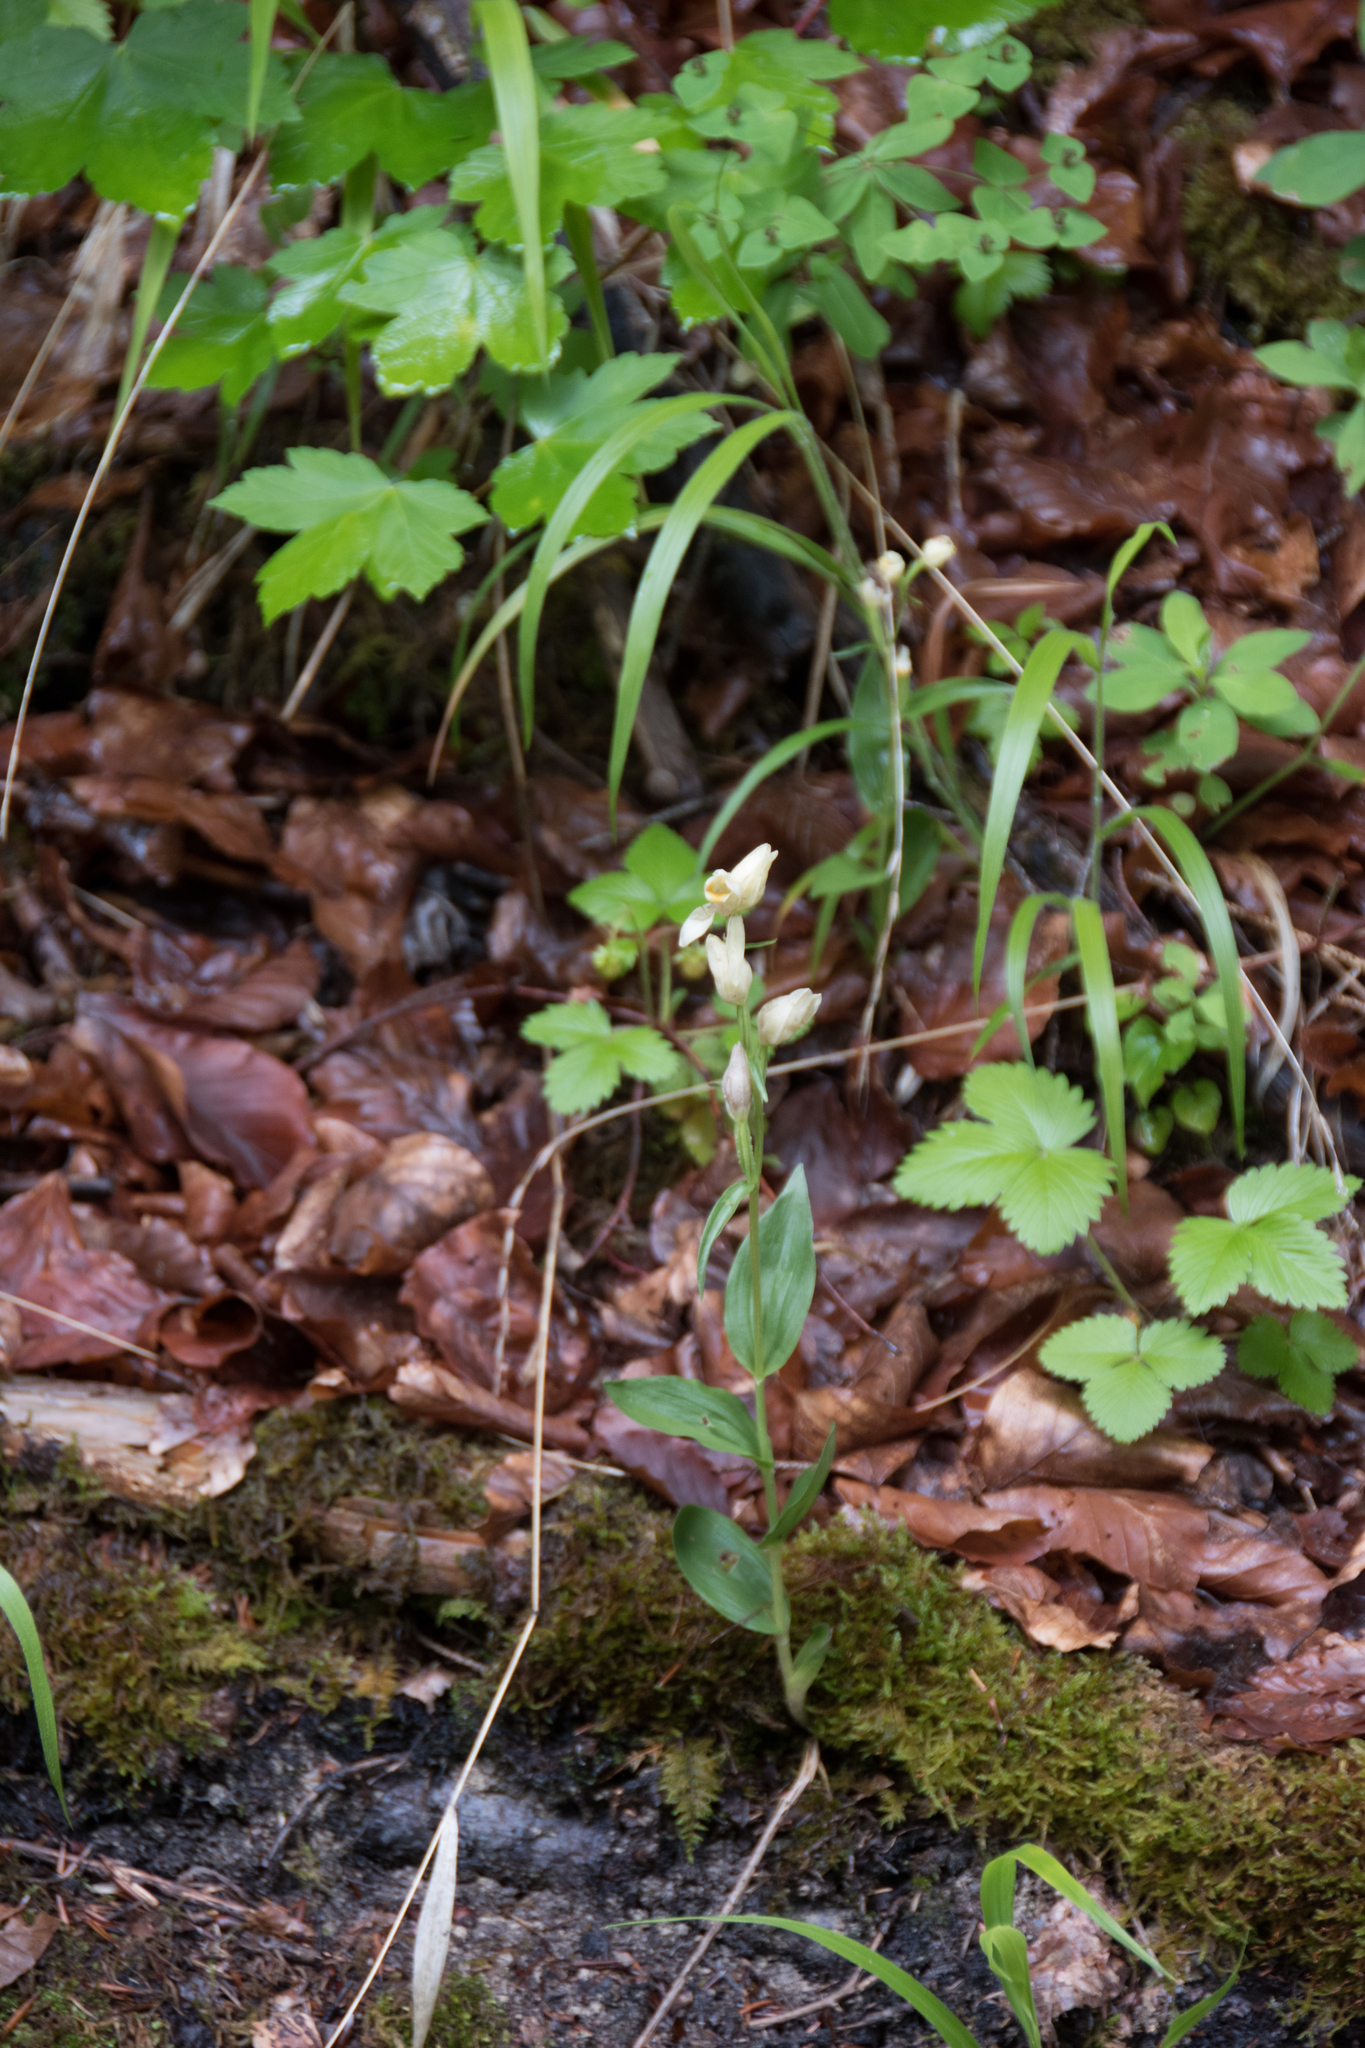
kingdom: Plantae
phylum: Tracheophyta
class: Liliopsida
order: Asparagales
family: Orchidaceae
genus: Cephalanthera
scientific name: Cephalanthera damasonium
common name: White helleborine
